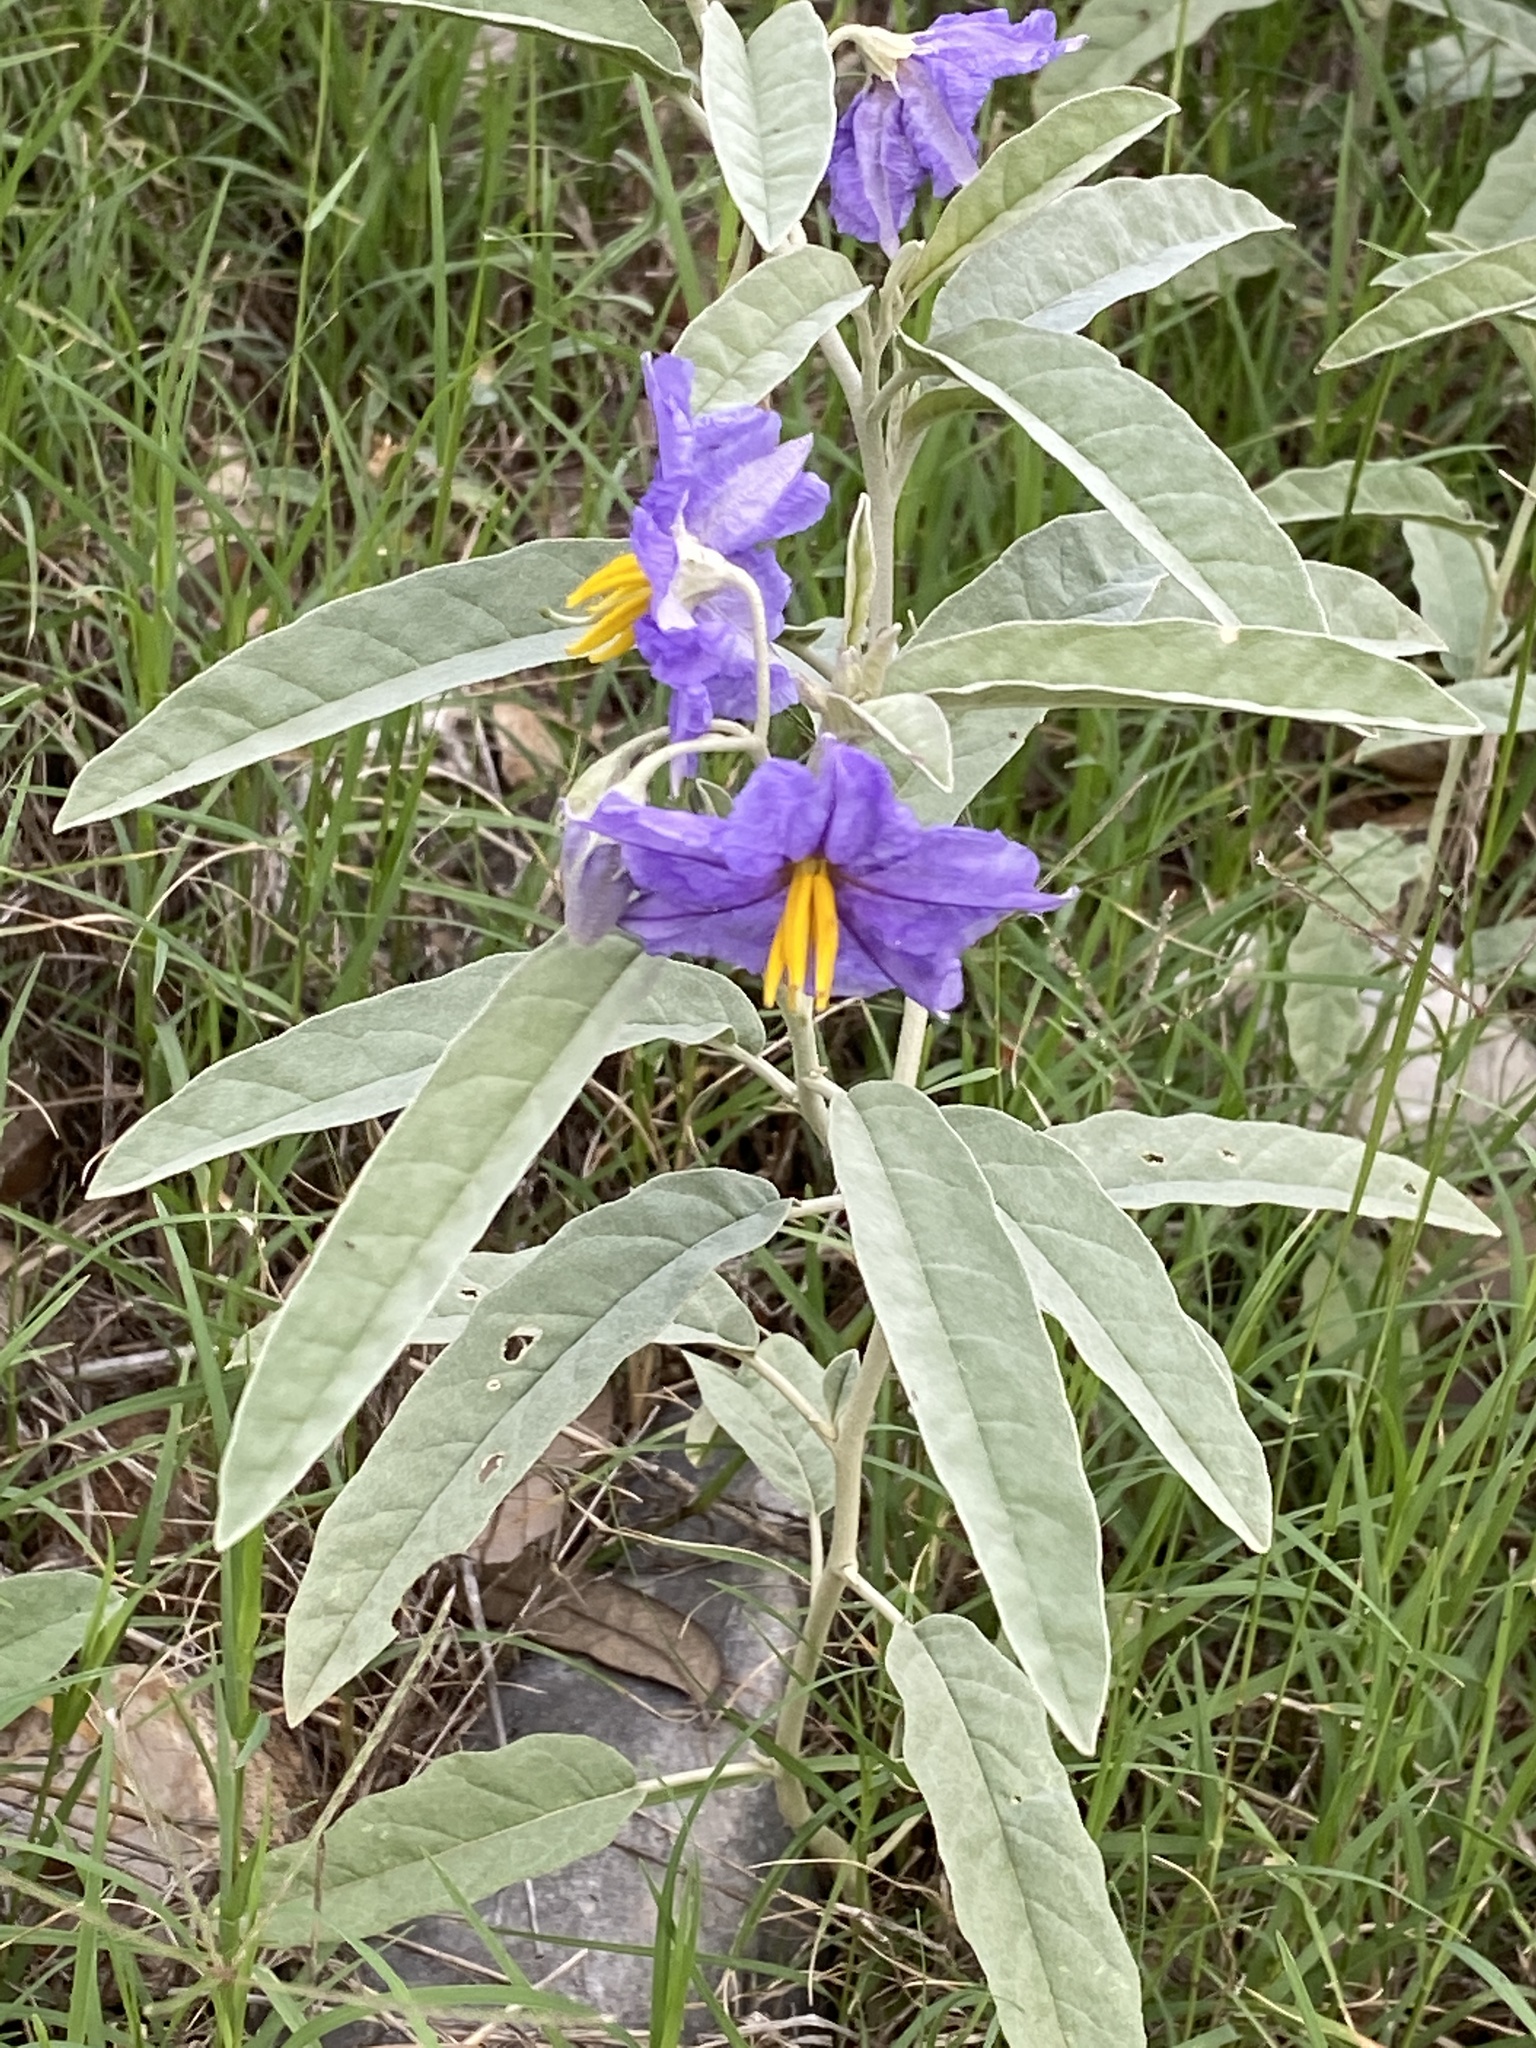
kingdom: Plantae
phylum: Tracheophyta
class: Magnoliopsida
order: Solanales
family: Solanaceae
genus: Solanum
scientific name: Solanum elaeagnifolium
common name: Silverleaf nightshade
